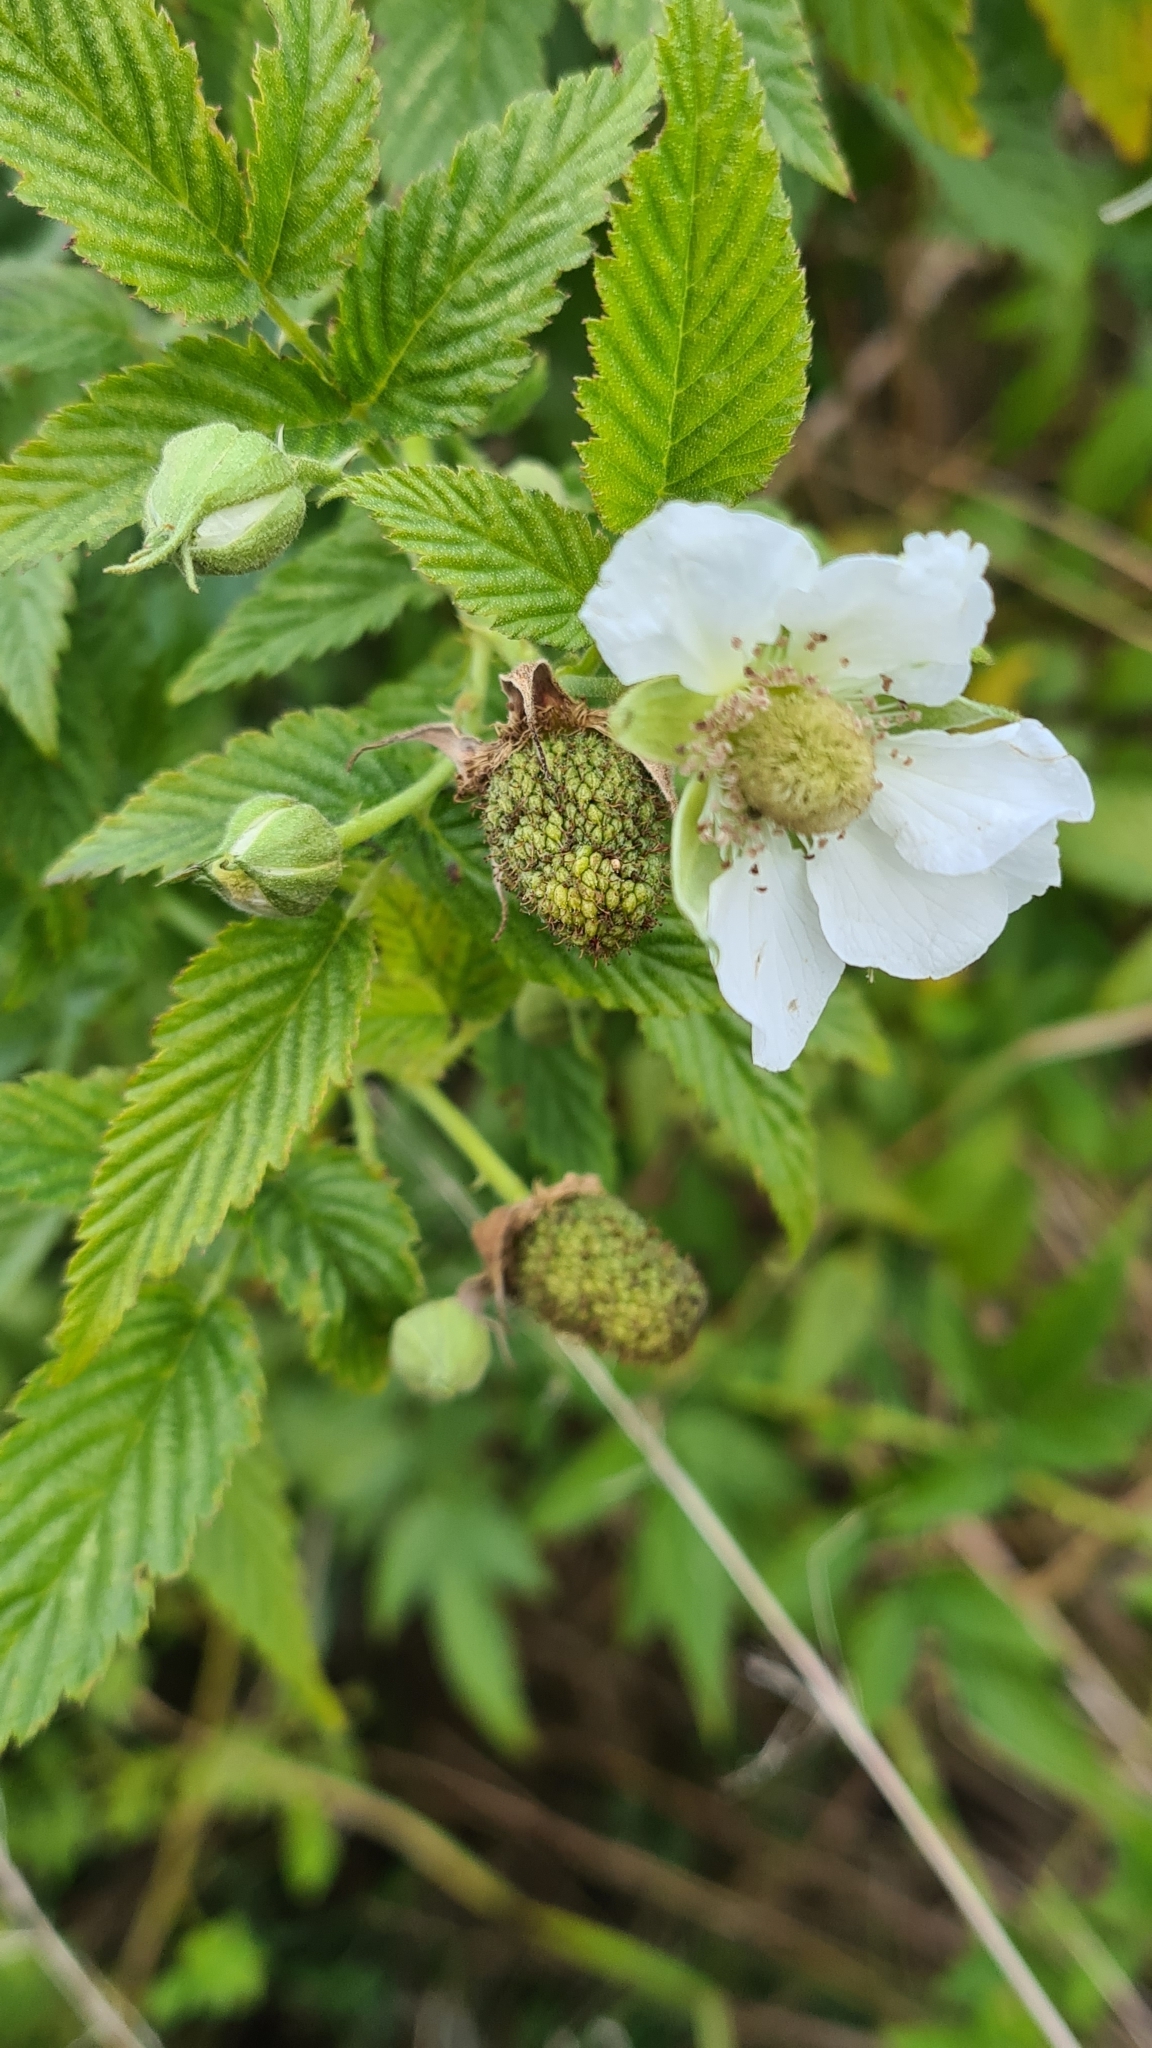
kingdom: Plantae
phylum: Tracheophyta
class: Magnoliopsida
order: Rosales
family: Rosaceae
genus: Rubus
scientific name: Rubus rosifolius
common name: Roseleaf raspberry
